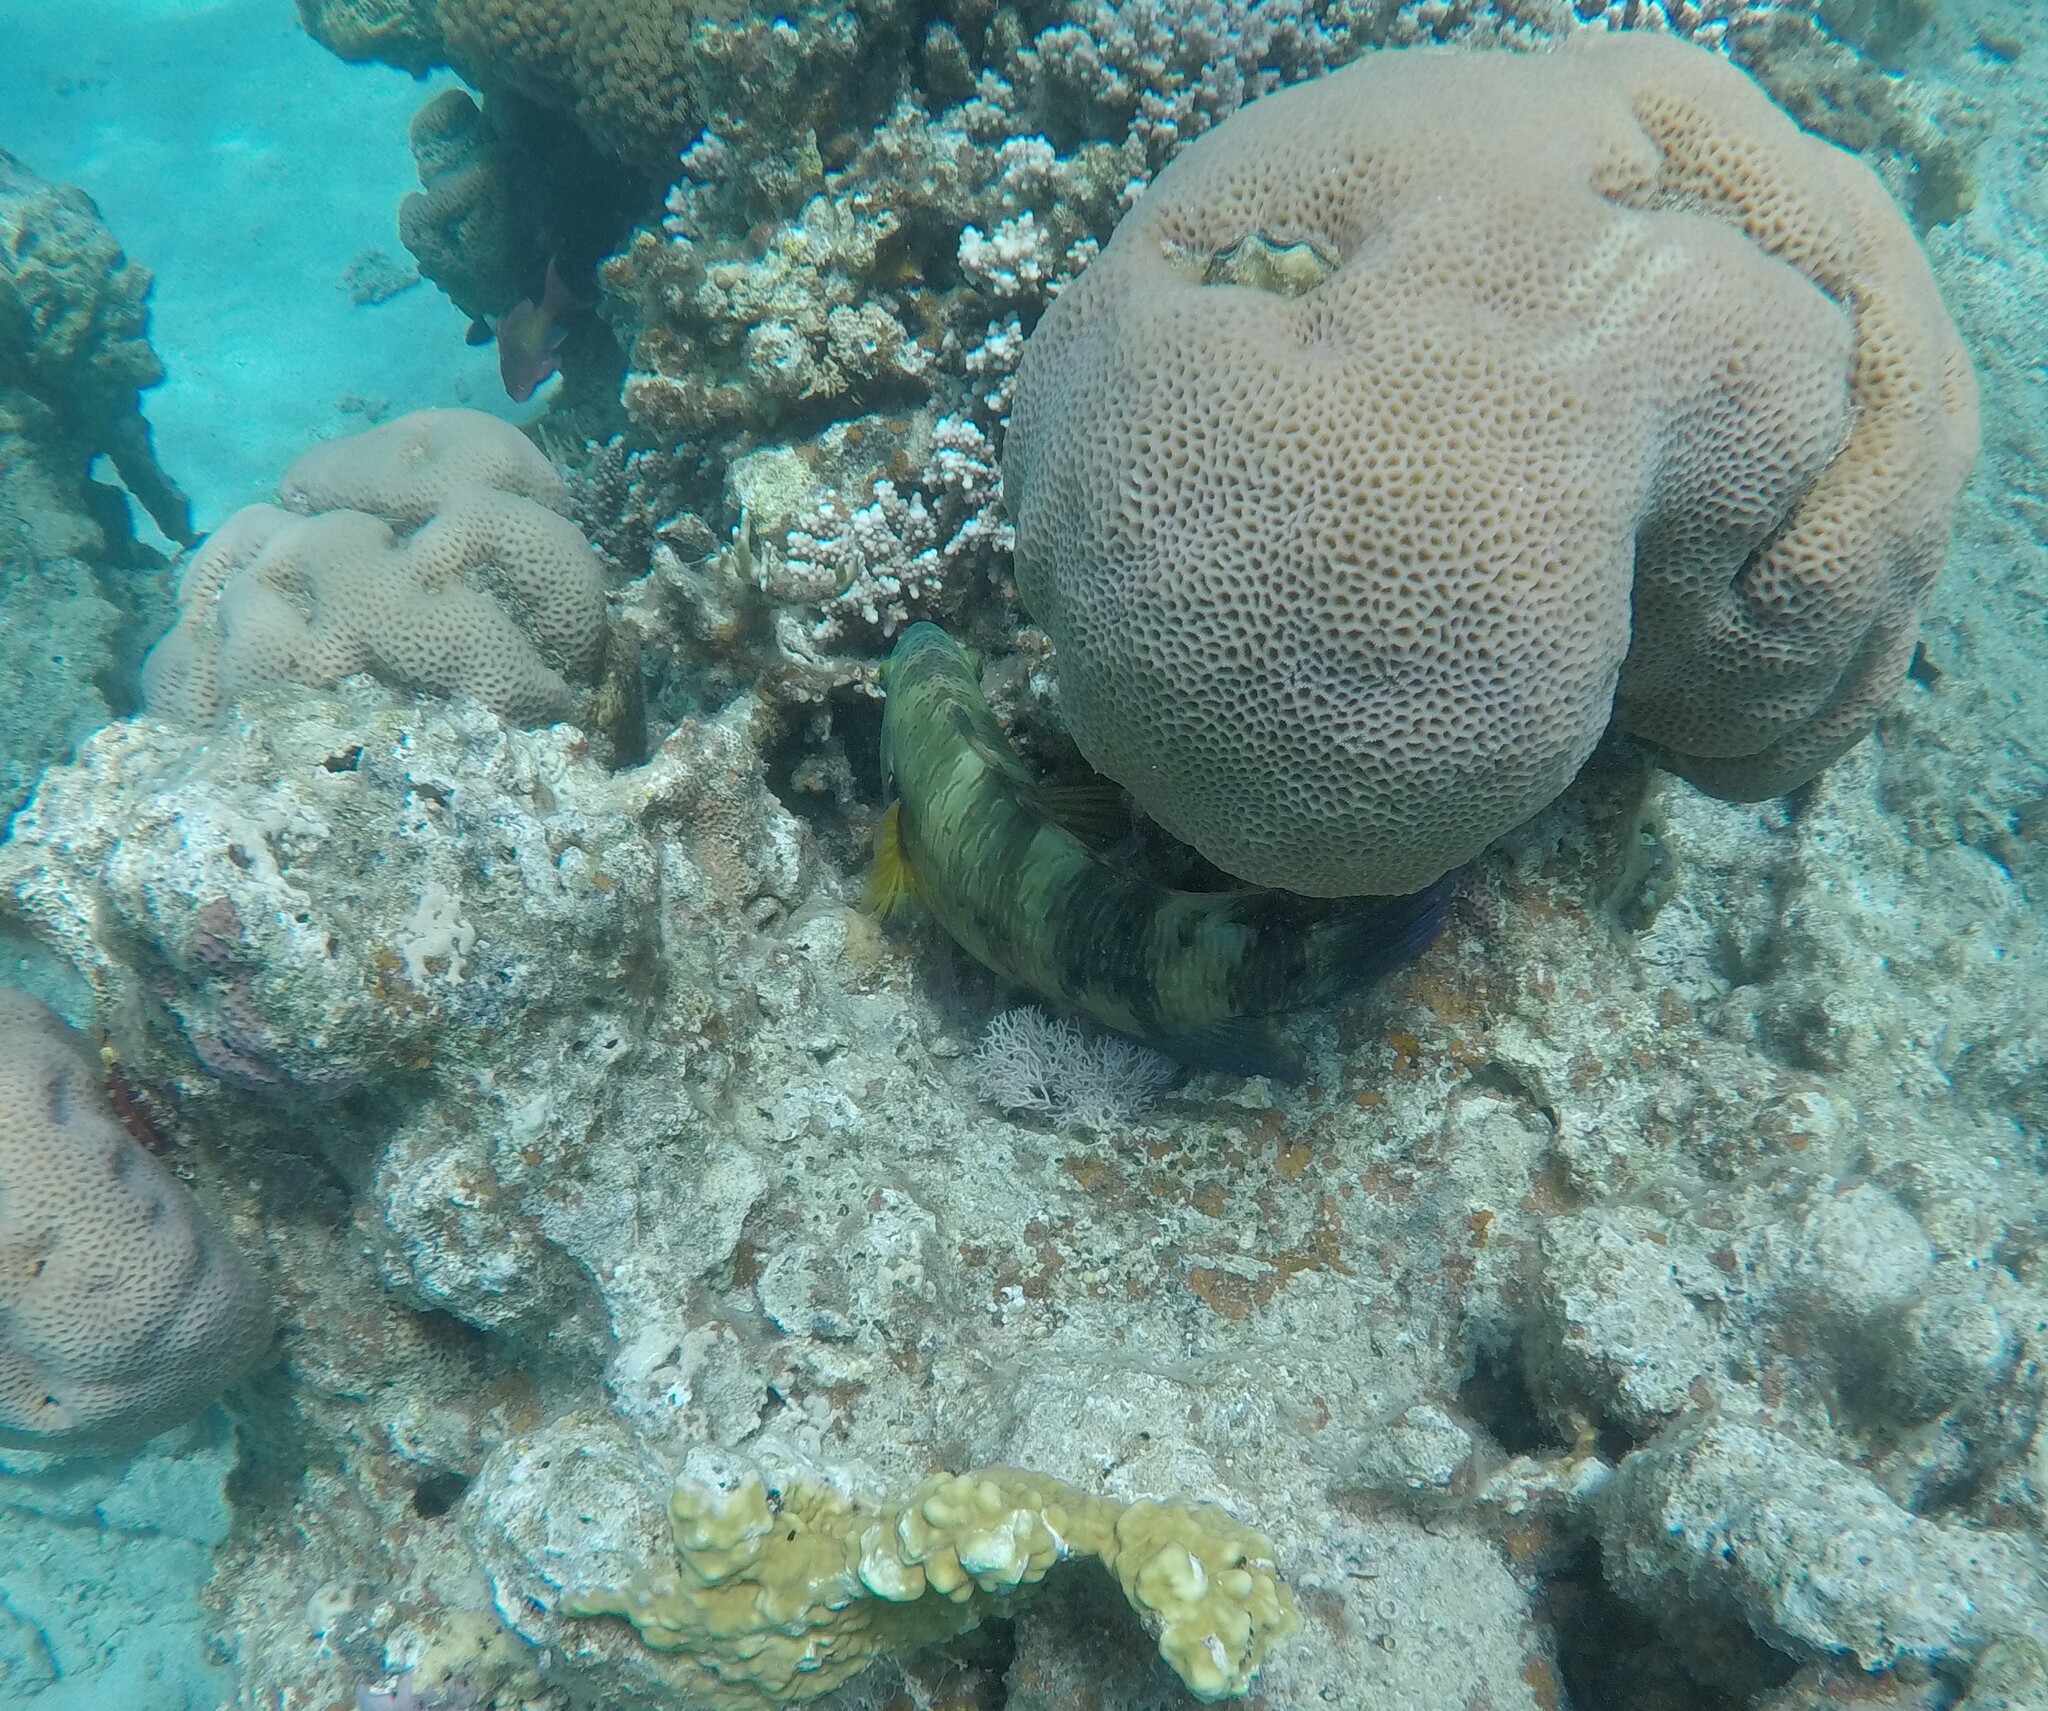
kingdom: Animalia
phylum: Chordata
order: Perciformes
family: Labridae
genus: Cheilinus
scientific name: Cheilinus lunulatus
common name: Broomtail wrasse
